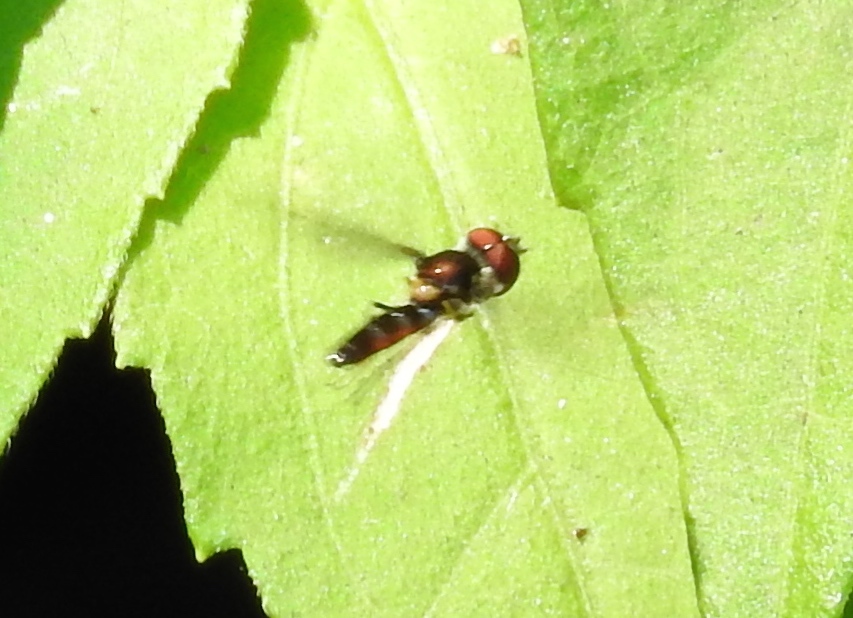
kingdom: Animalia
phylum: Arthropoda
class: Insecta
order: Diptera
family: Syrphidae
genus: Platycheirus
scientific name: Platycheirus
